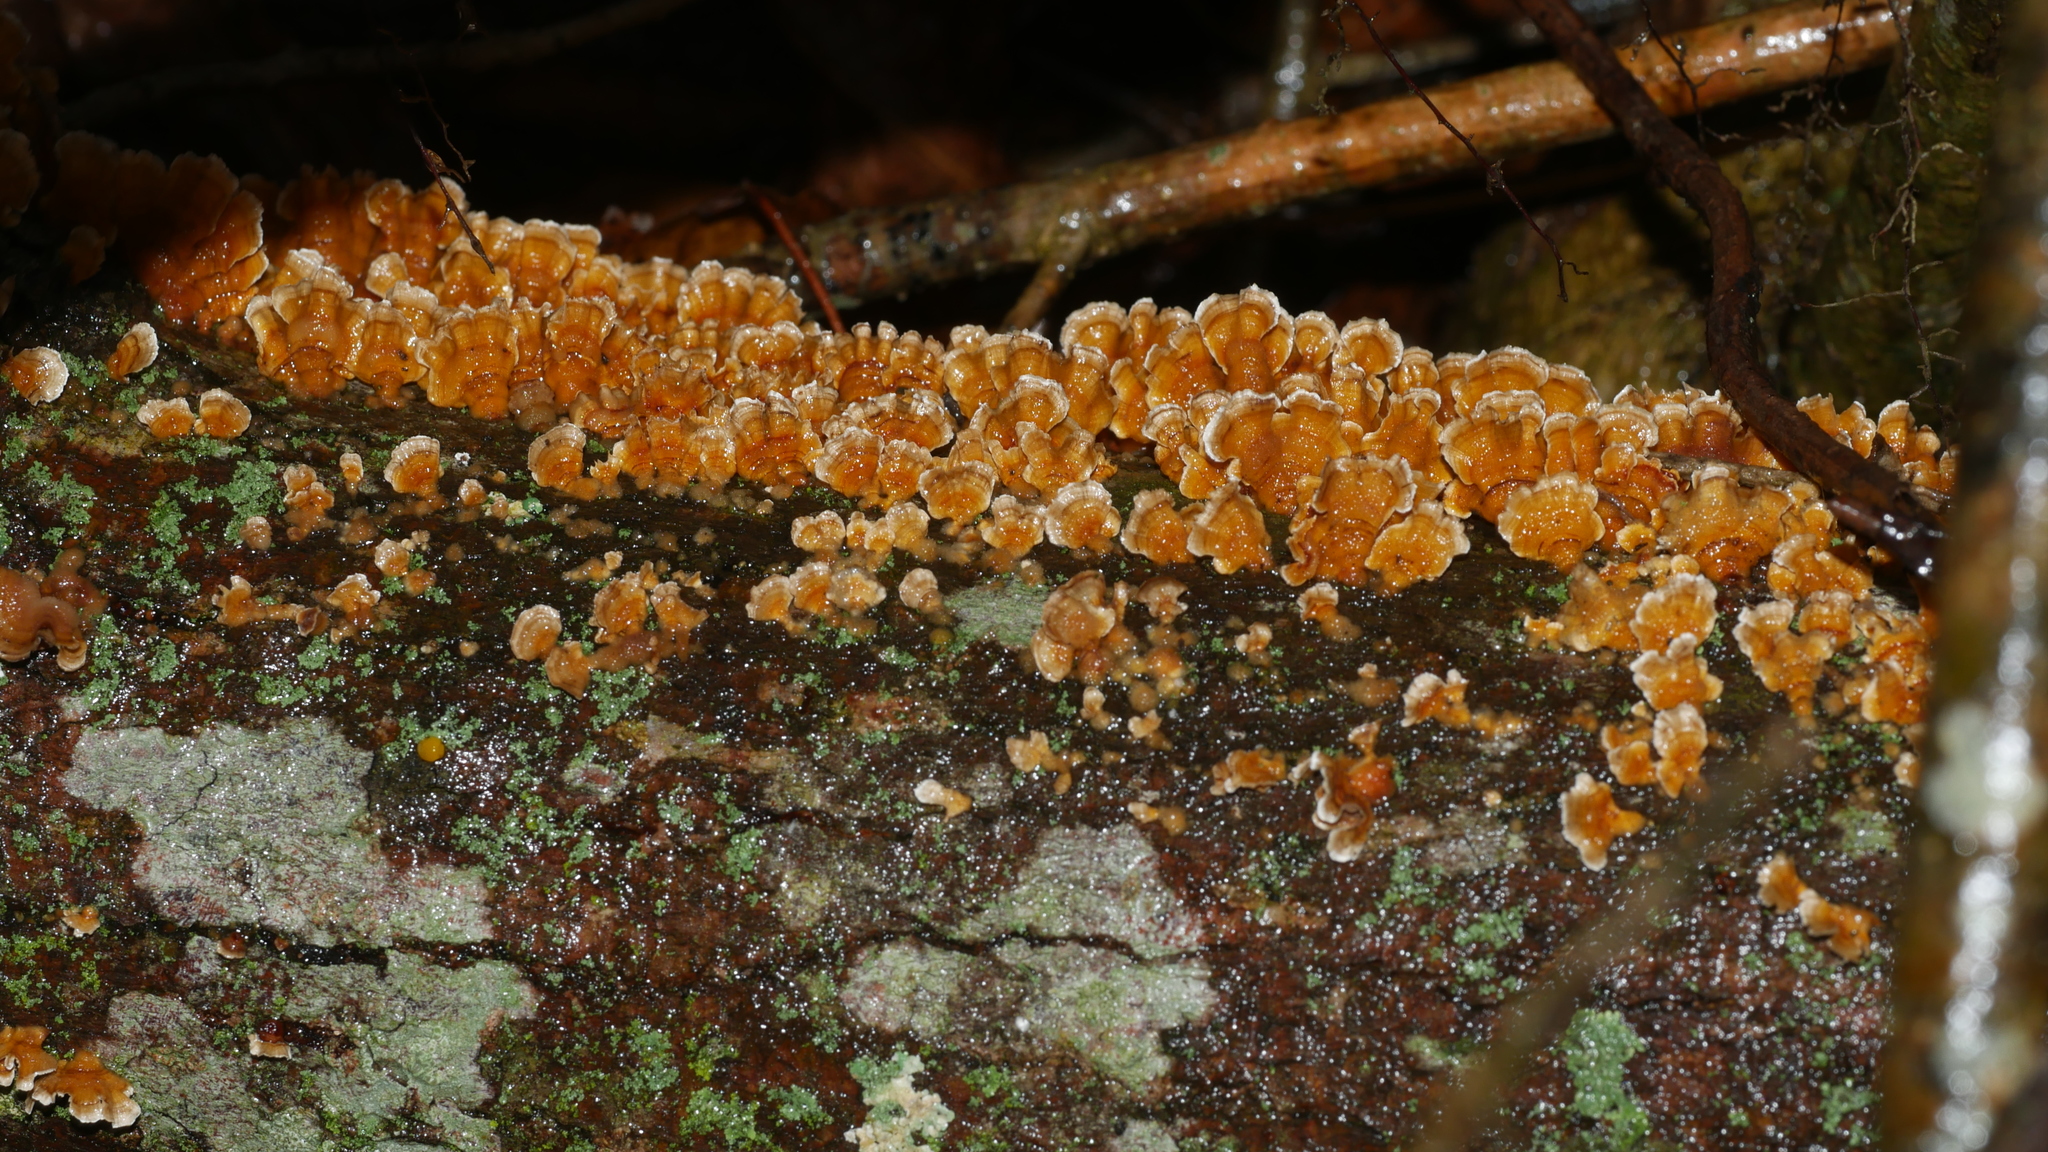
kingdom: Fungi
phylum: Basidiomycota
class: Agaricomycetes
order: Russulales
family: Stereaceae
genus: Stereum
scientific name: Stereum complicatum
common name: Crowded parchment
